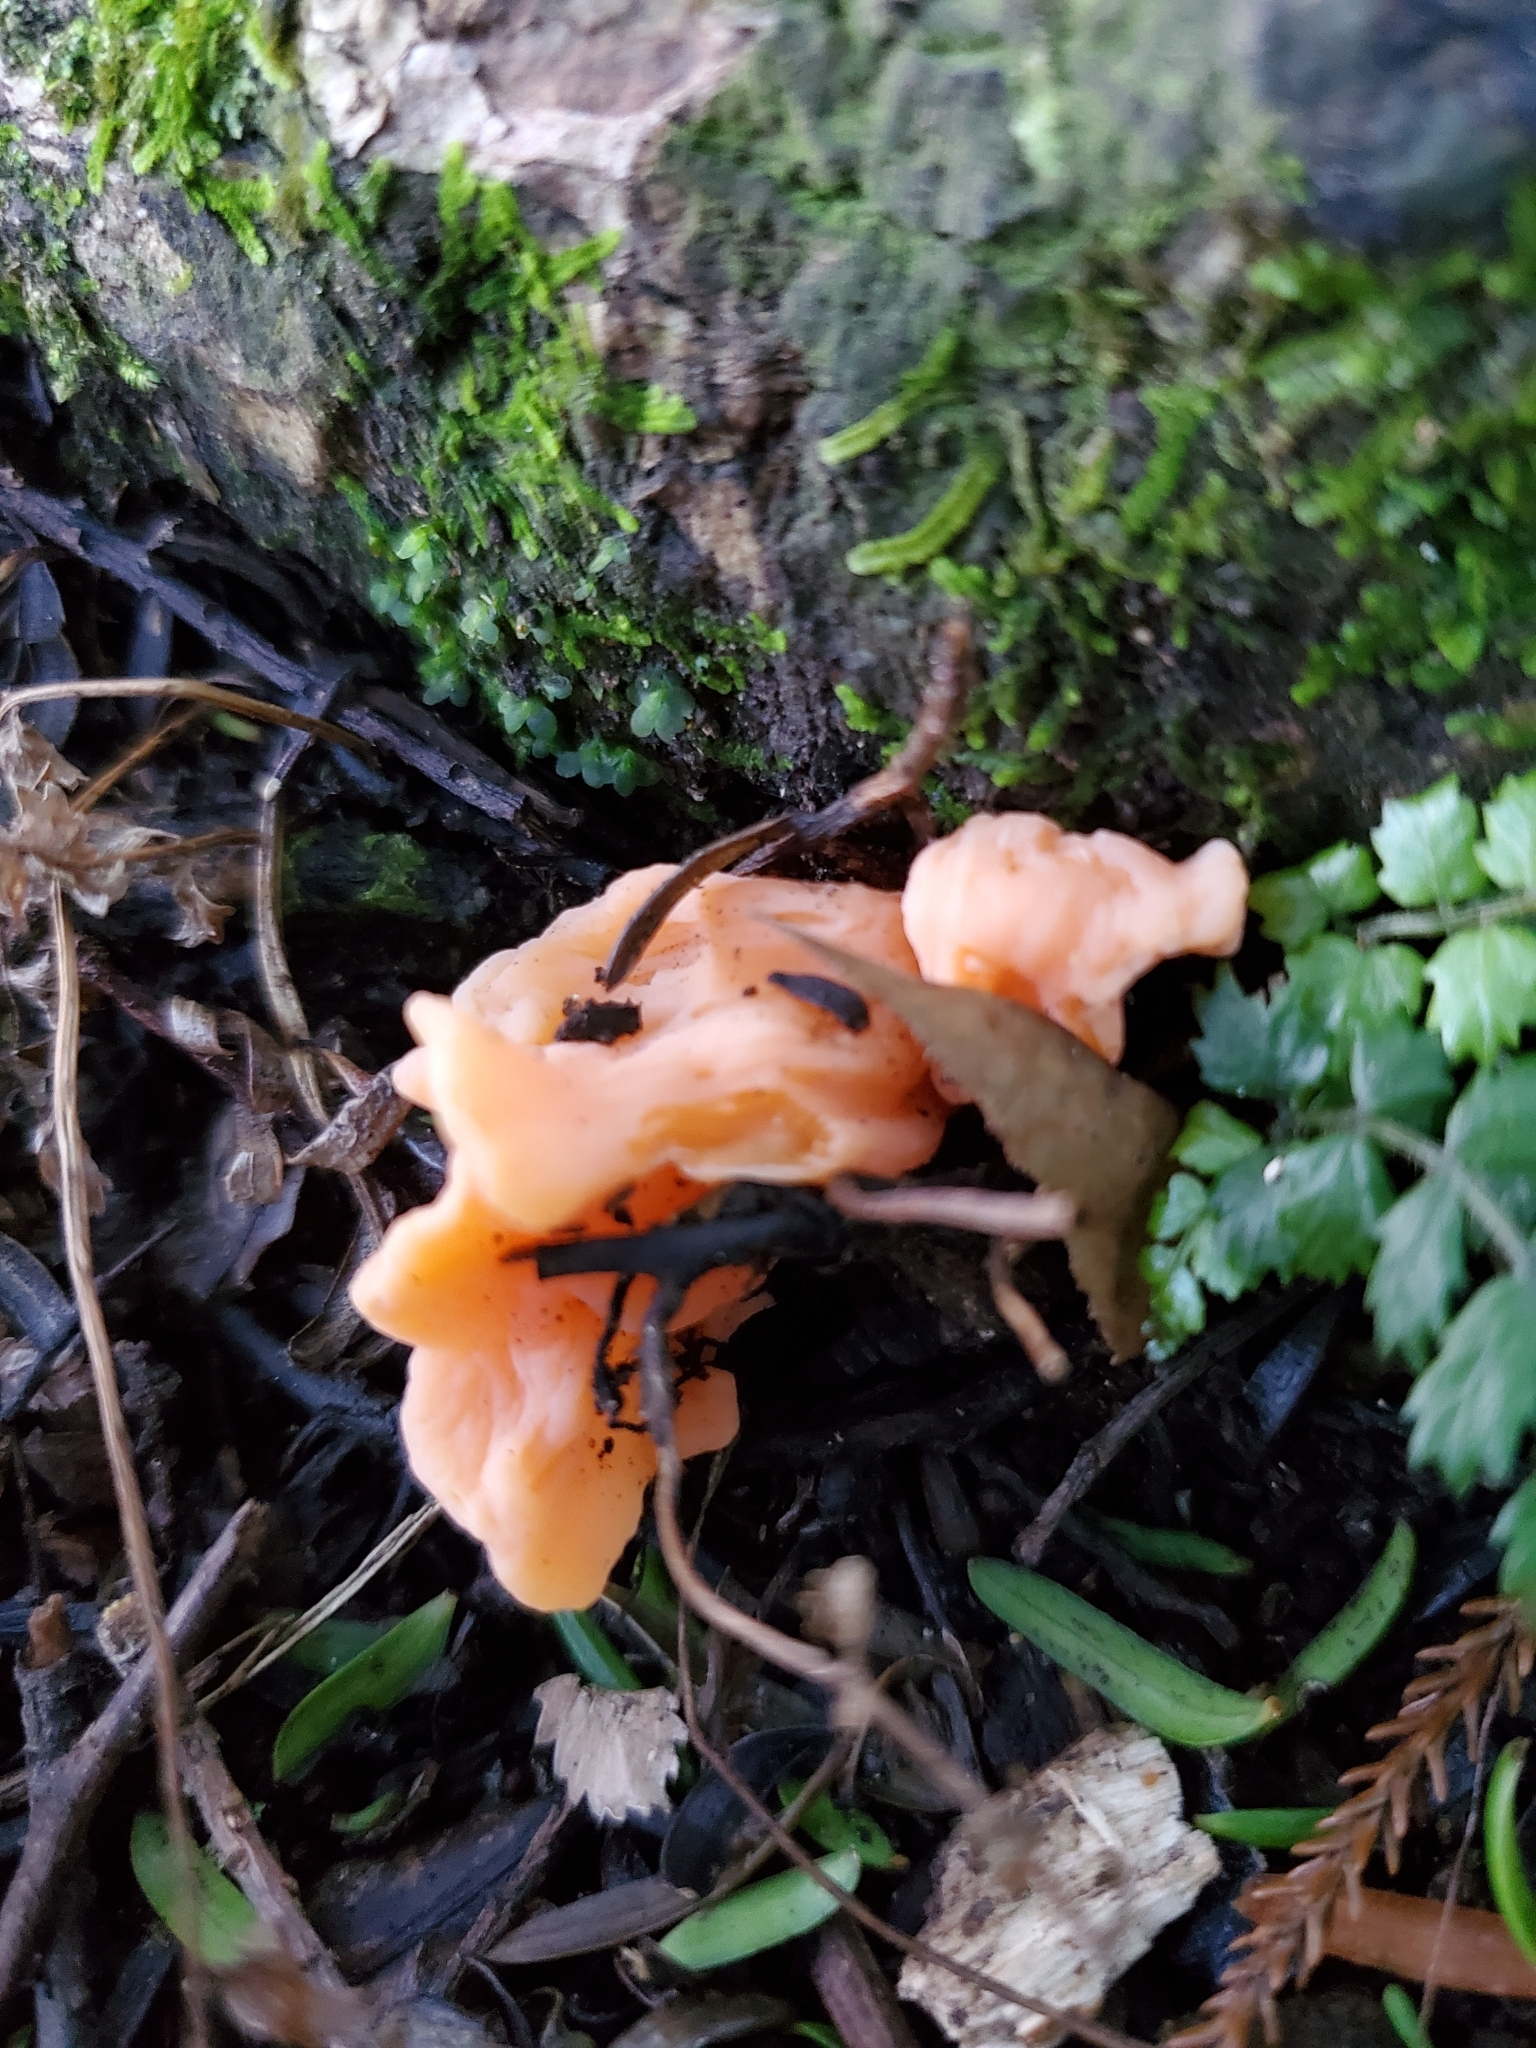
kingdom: Fungi
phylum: Basidiomycota
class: Agaricomycetes
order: Agaricales
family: Clavariaceae
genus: Clavulinopsis
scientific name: Clavulinopsis sulcata
